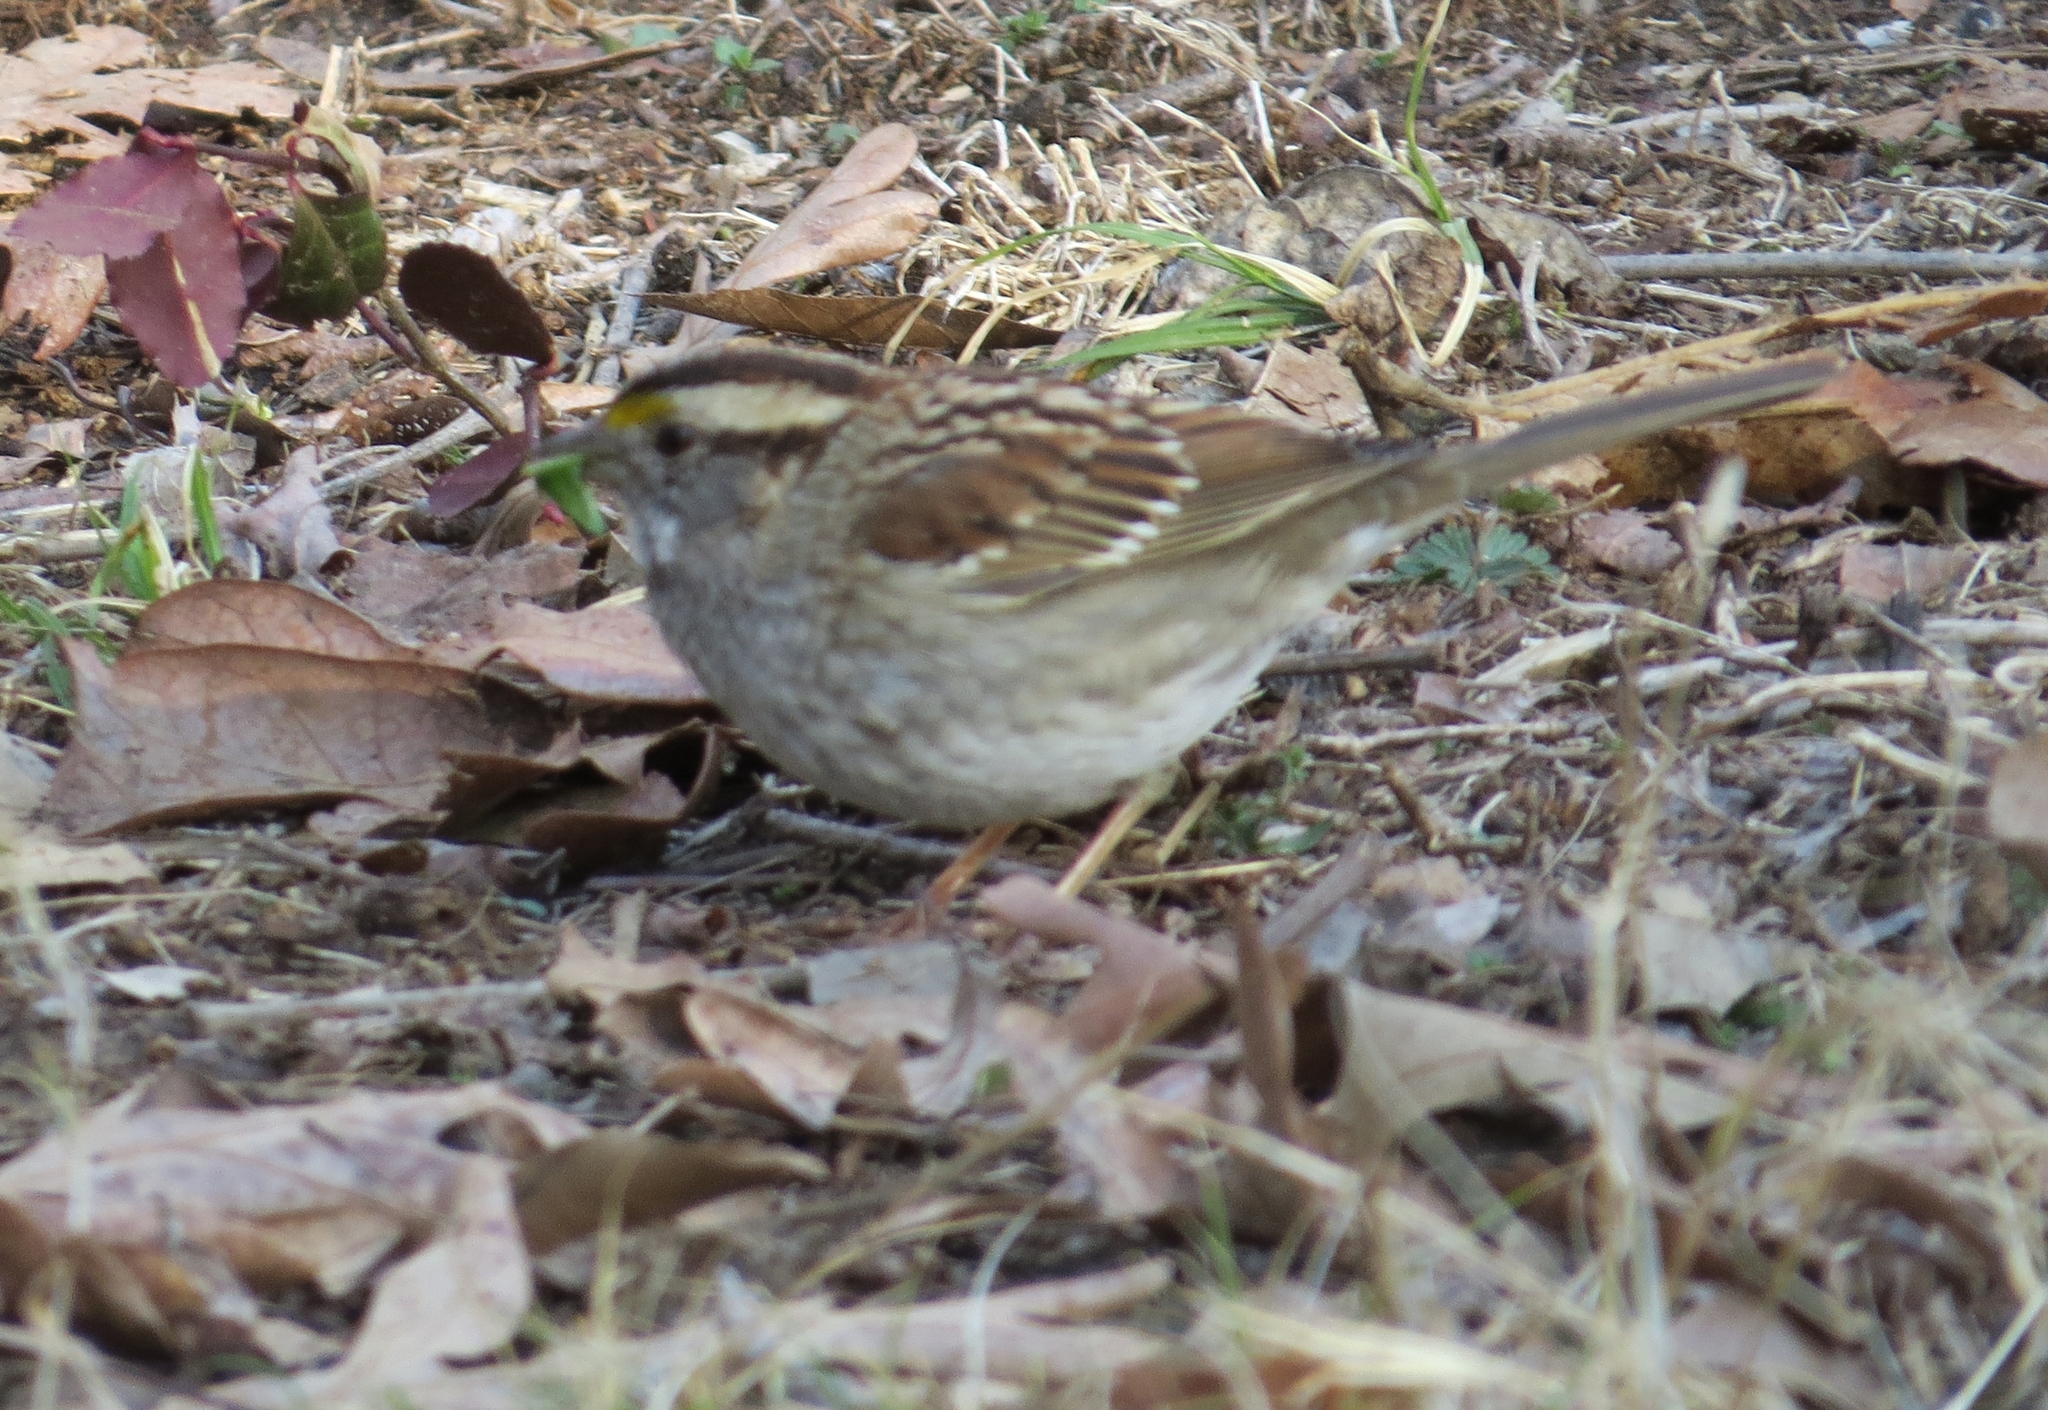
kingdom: Animalia
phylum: Chordata
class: Aves
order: Passeriformes
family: Passerellidae
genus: Zonotrichia
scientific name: Zonotrichia albicollis
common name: White-throated sparrow
